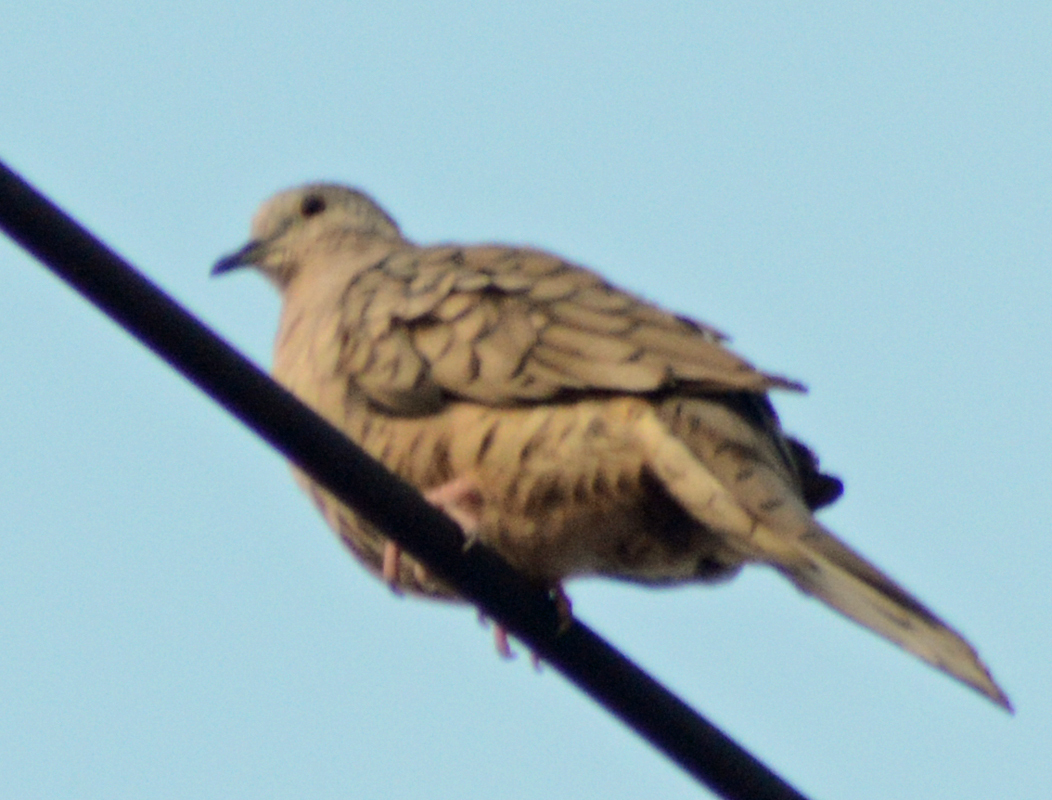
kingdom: Animalia
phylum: Chordata
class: Aves
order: Columbiformes
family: Columbidae
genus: Columbina
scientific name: Columbina inca
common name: Inca dove
